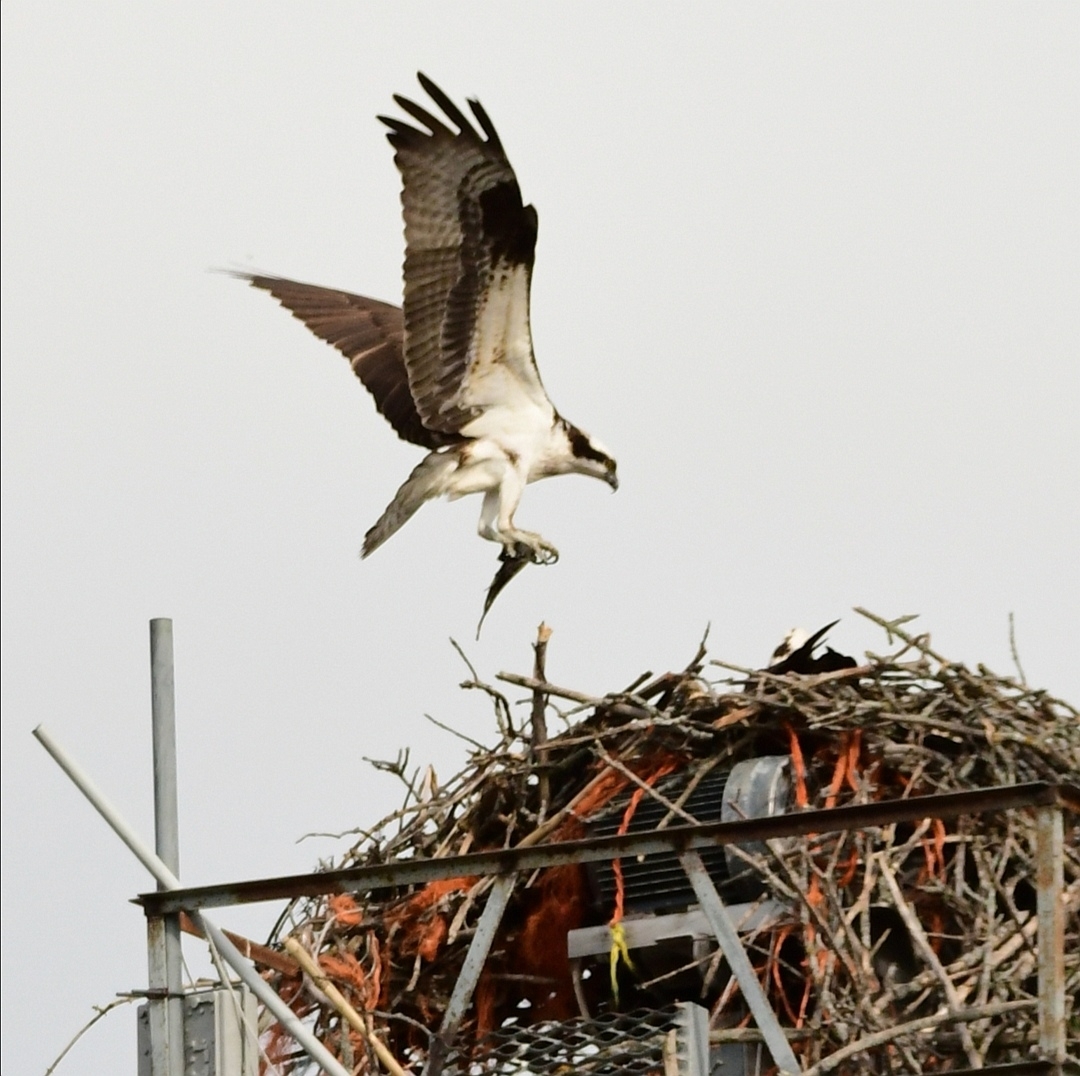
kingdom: Animalia
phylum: Chordata
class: Aves
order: Accipitriformes
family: Pandionidae
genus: Pandion
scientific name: Pandion haliaetus
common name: Osprey
